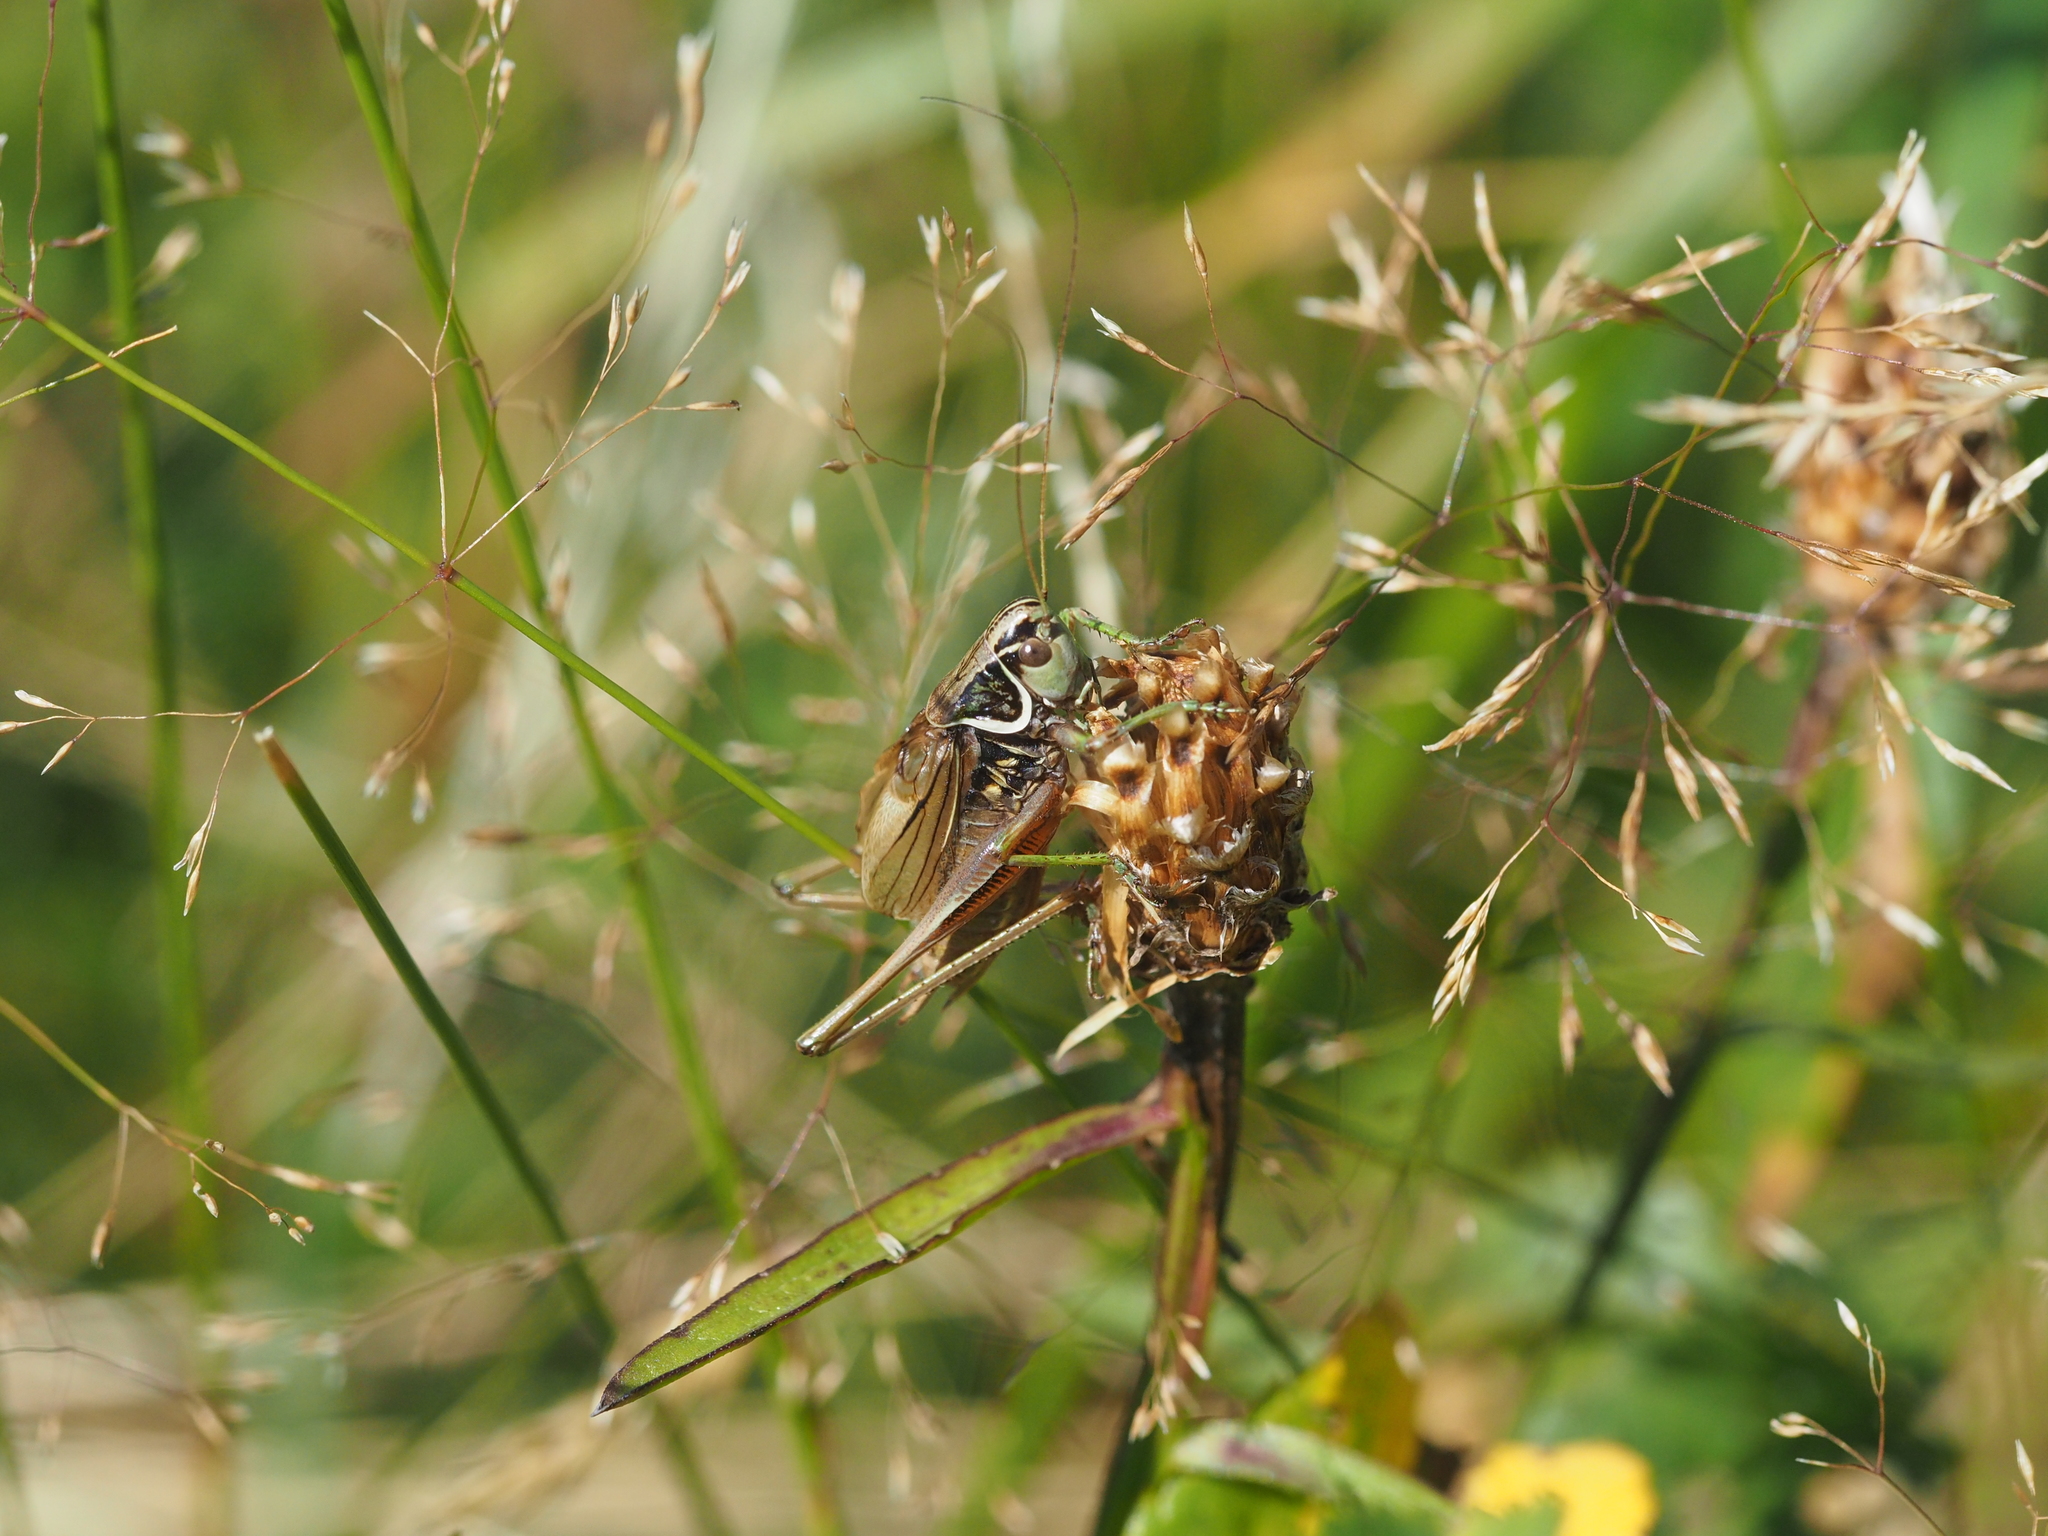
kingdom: Animalia
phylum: Arthropoda
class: Insecta
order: Orthoptera
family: Tettigoniidae
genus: Roeseliana
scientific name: Roeseliana roeselii
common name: Roesel's bush cricket
